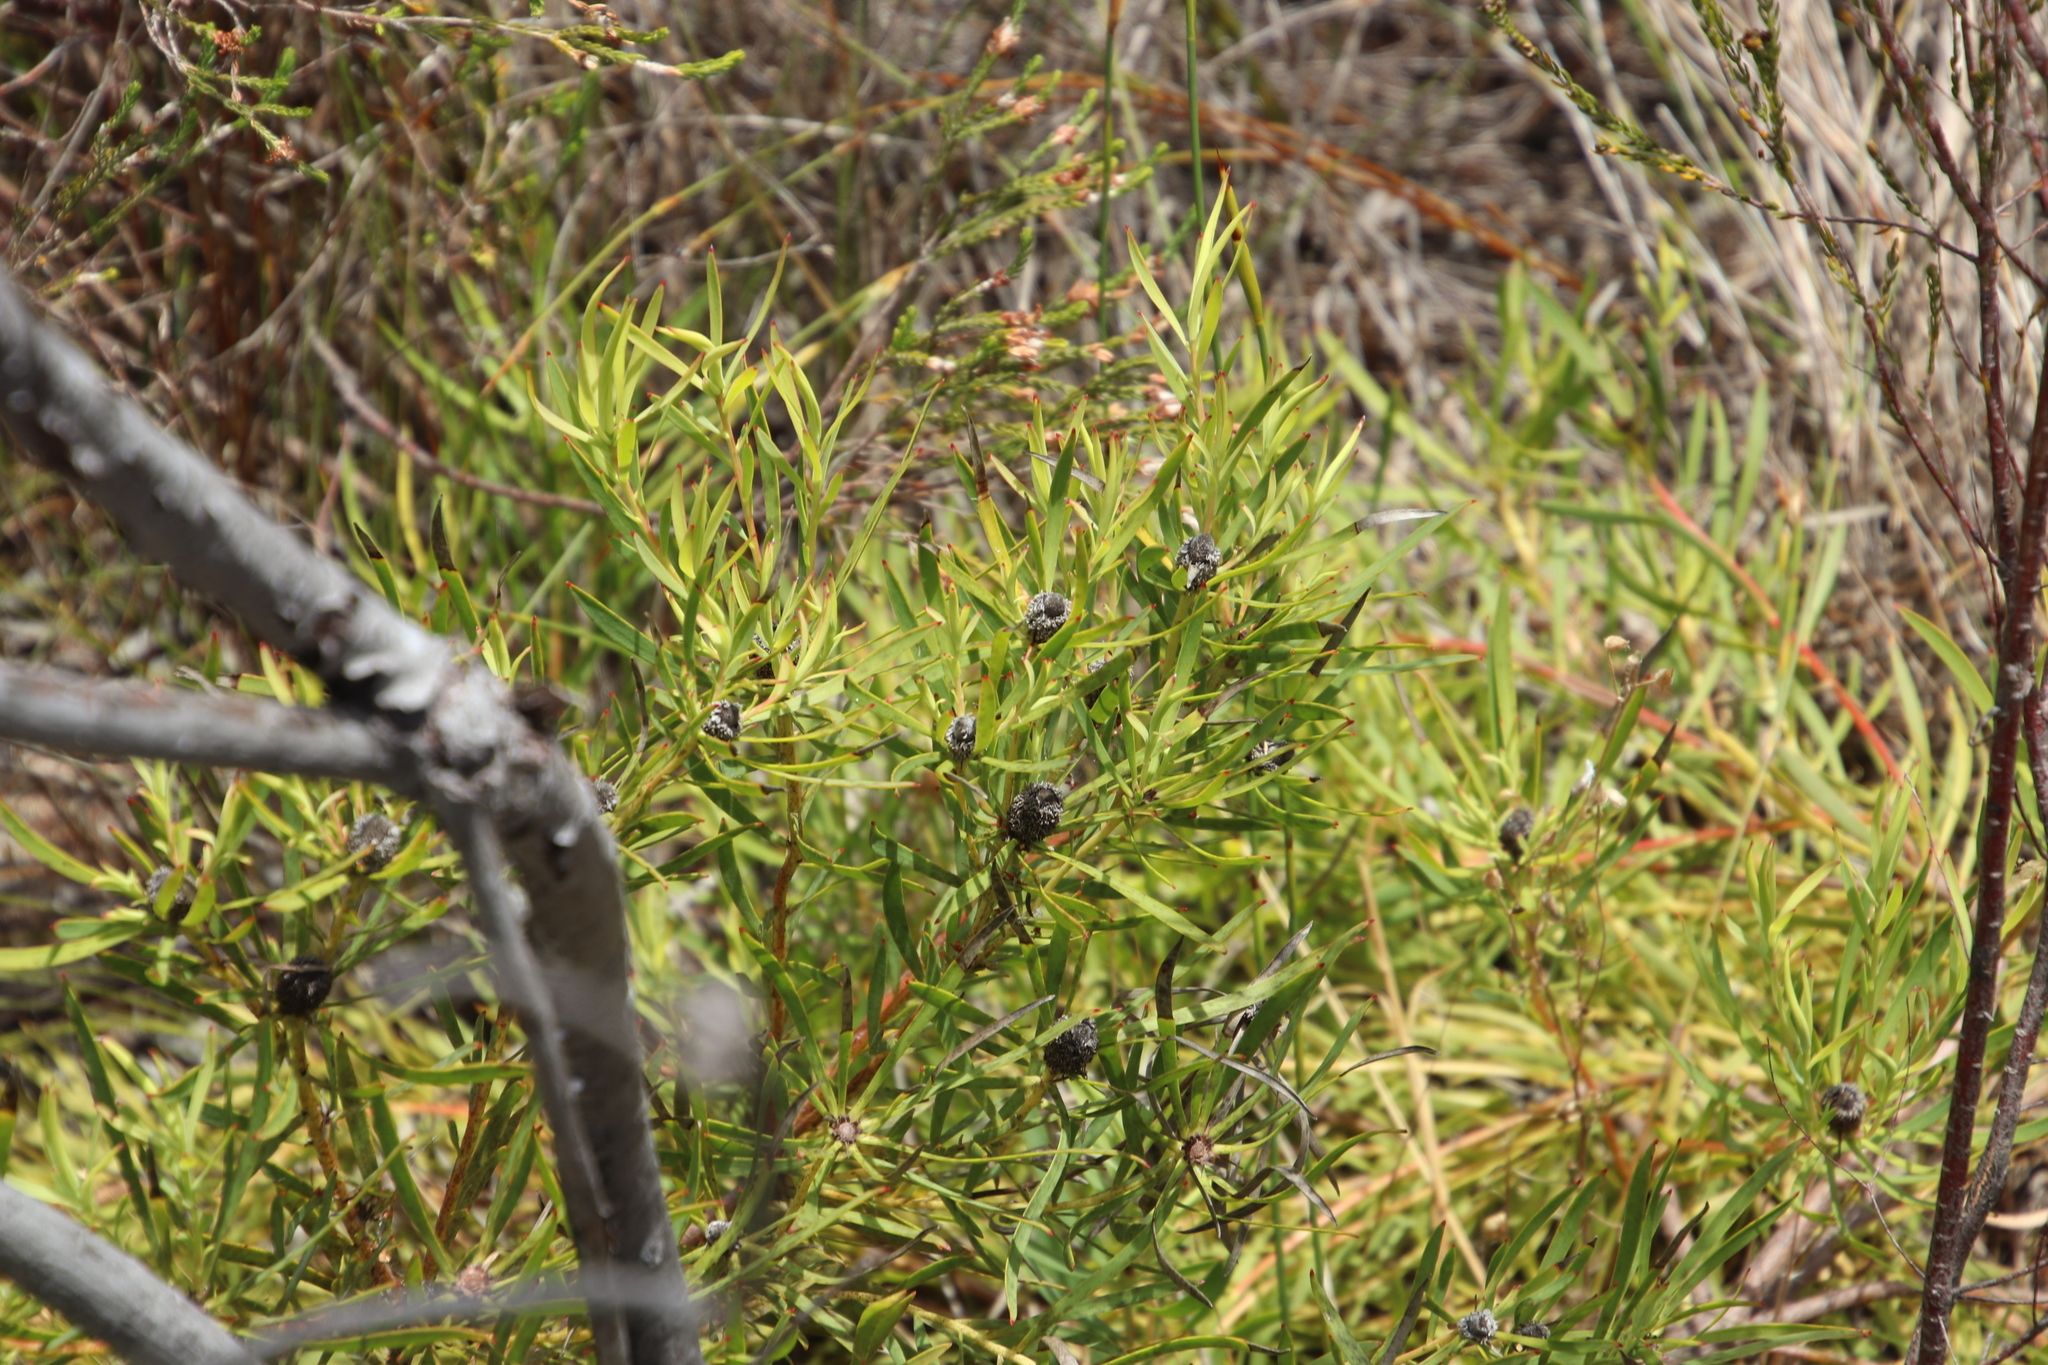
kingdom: Plantae
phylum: Tracheophyta
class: Magnoliopsida
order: Proteales
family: Proteaceae
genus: Leucadendron
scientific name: Leucadendron salignum
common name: Common sunshine conebush
